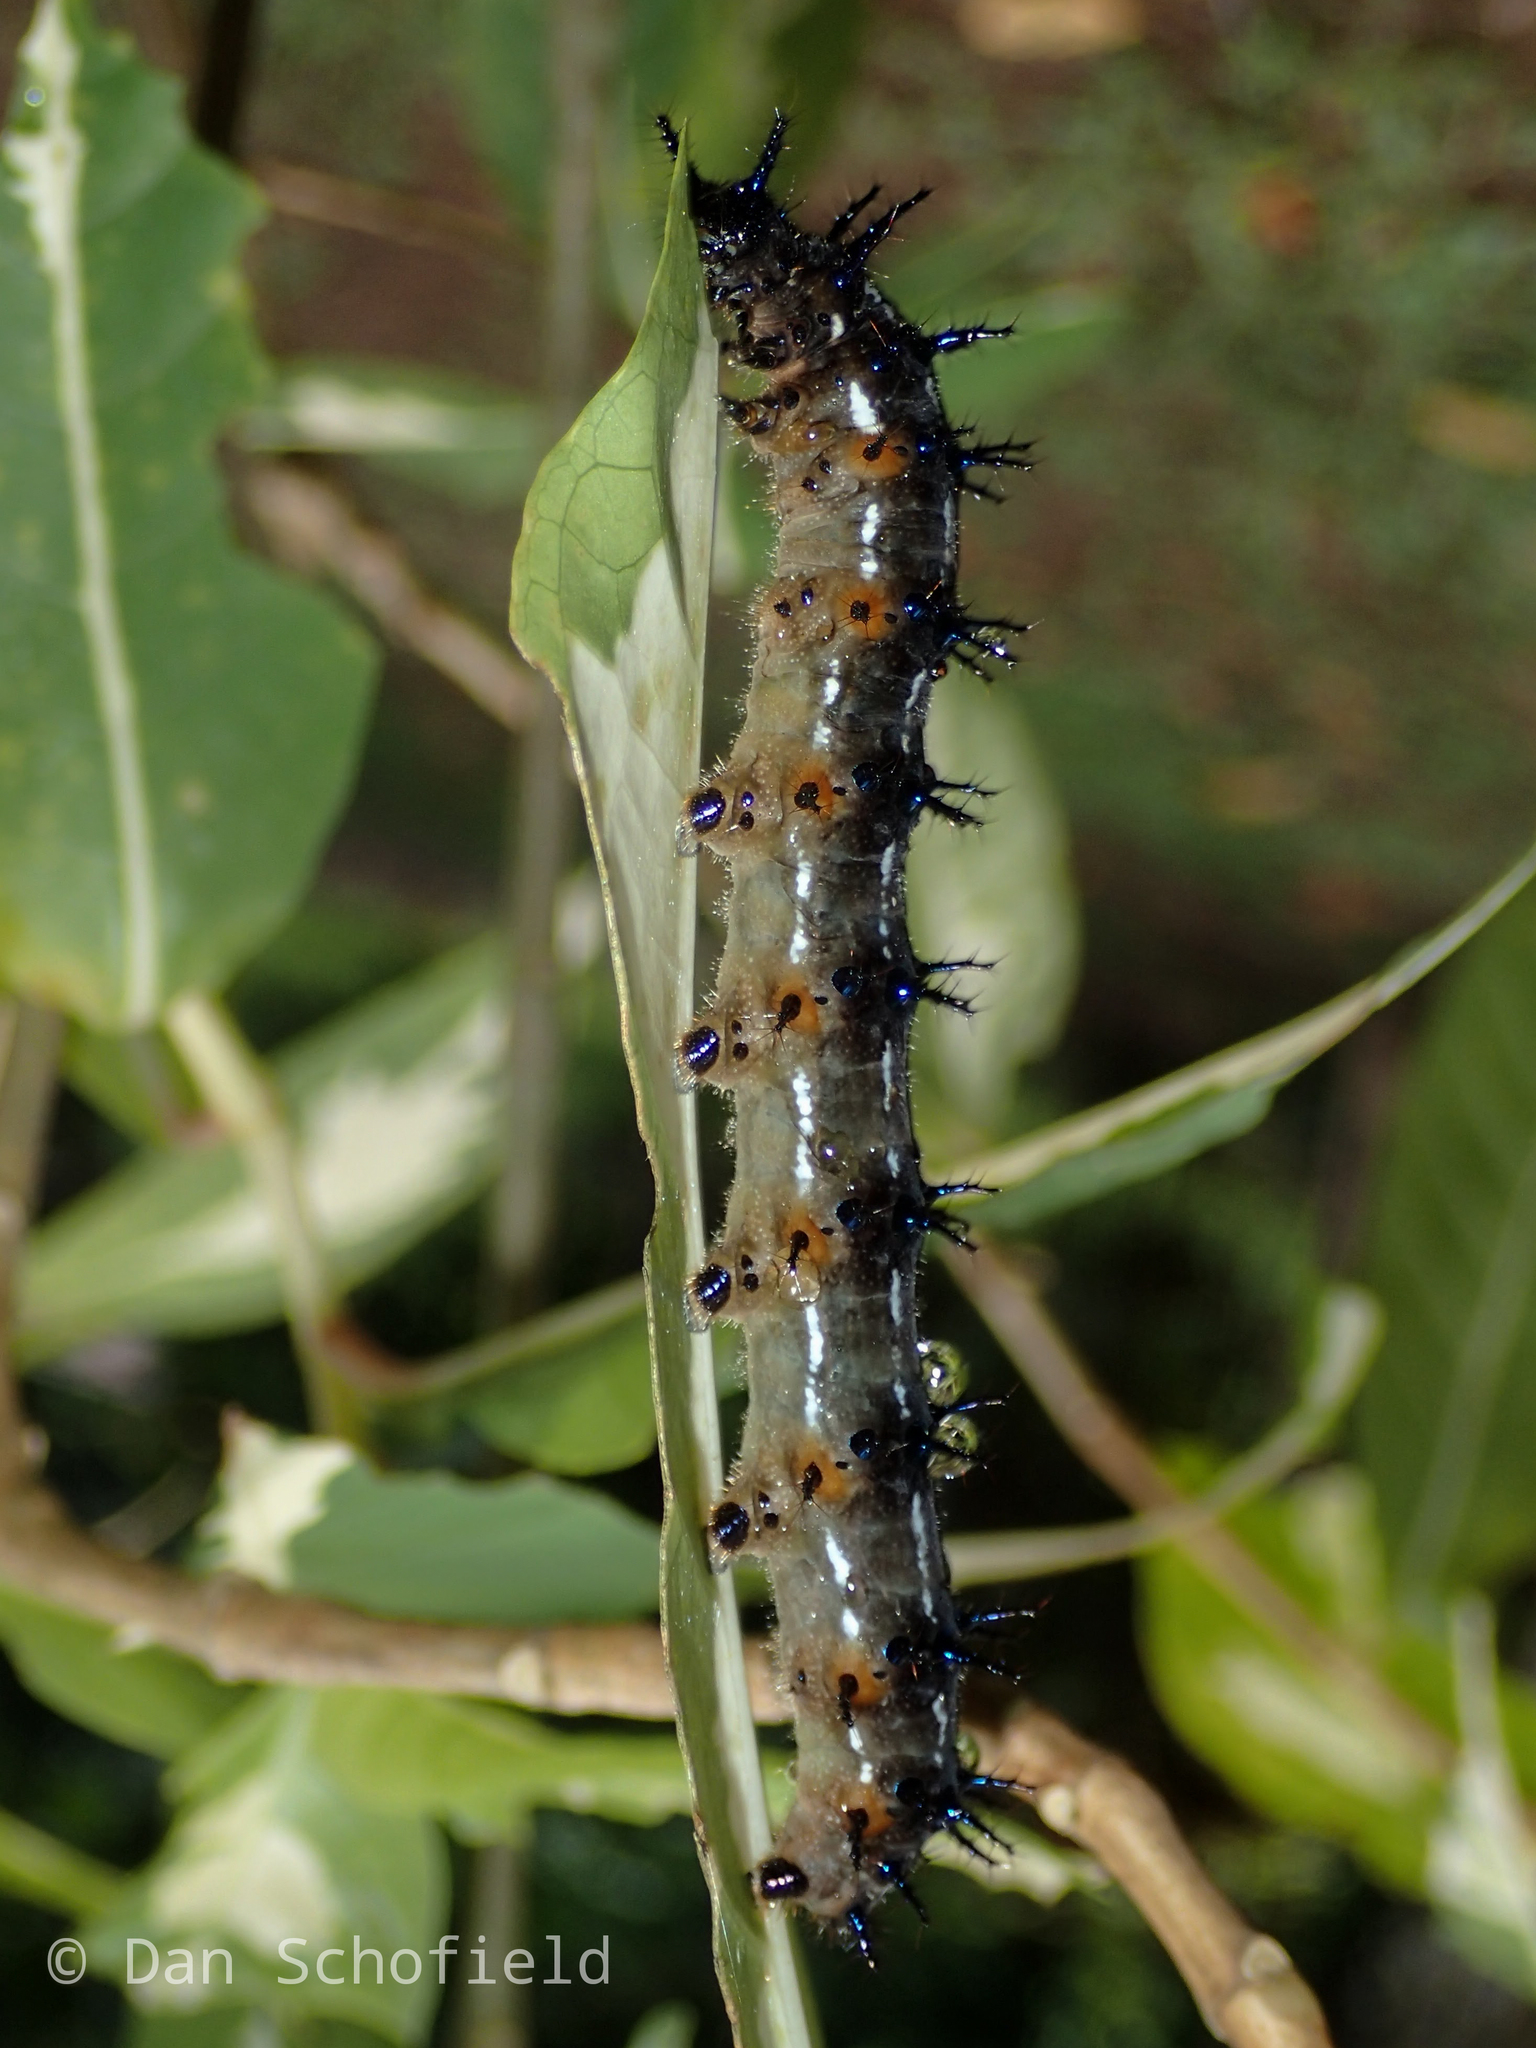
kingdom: Animalia
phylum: Arthropoda
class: Insecta
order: Lepidoptera
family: Nymphalidae
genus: Doleschallia
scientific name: Doleschallia bisaltide
